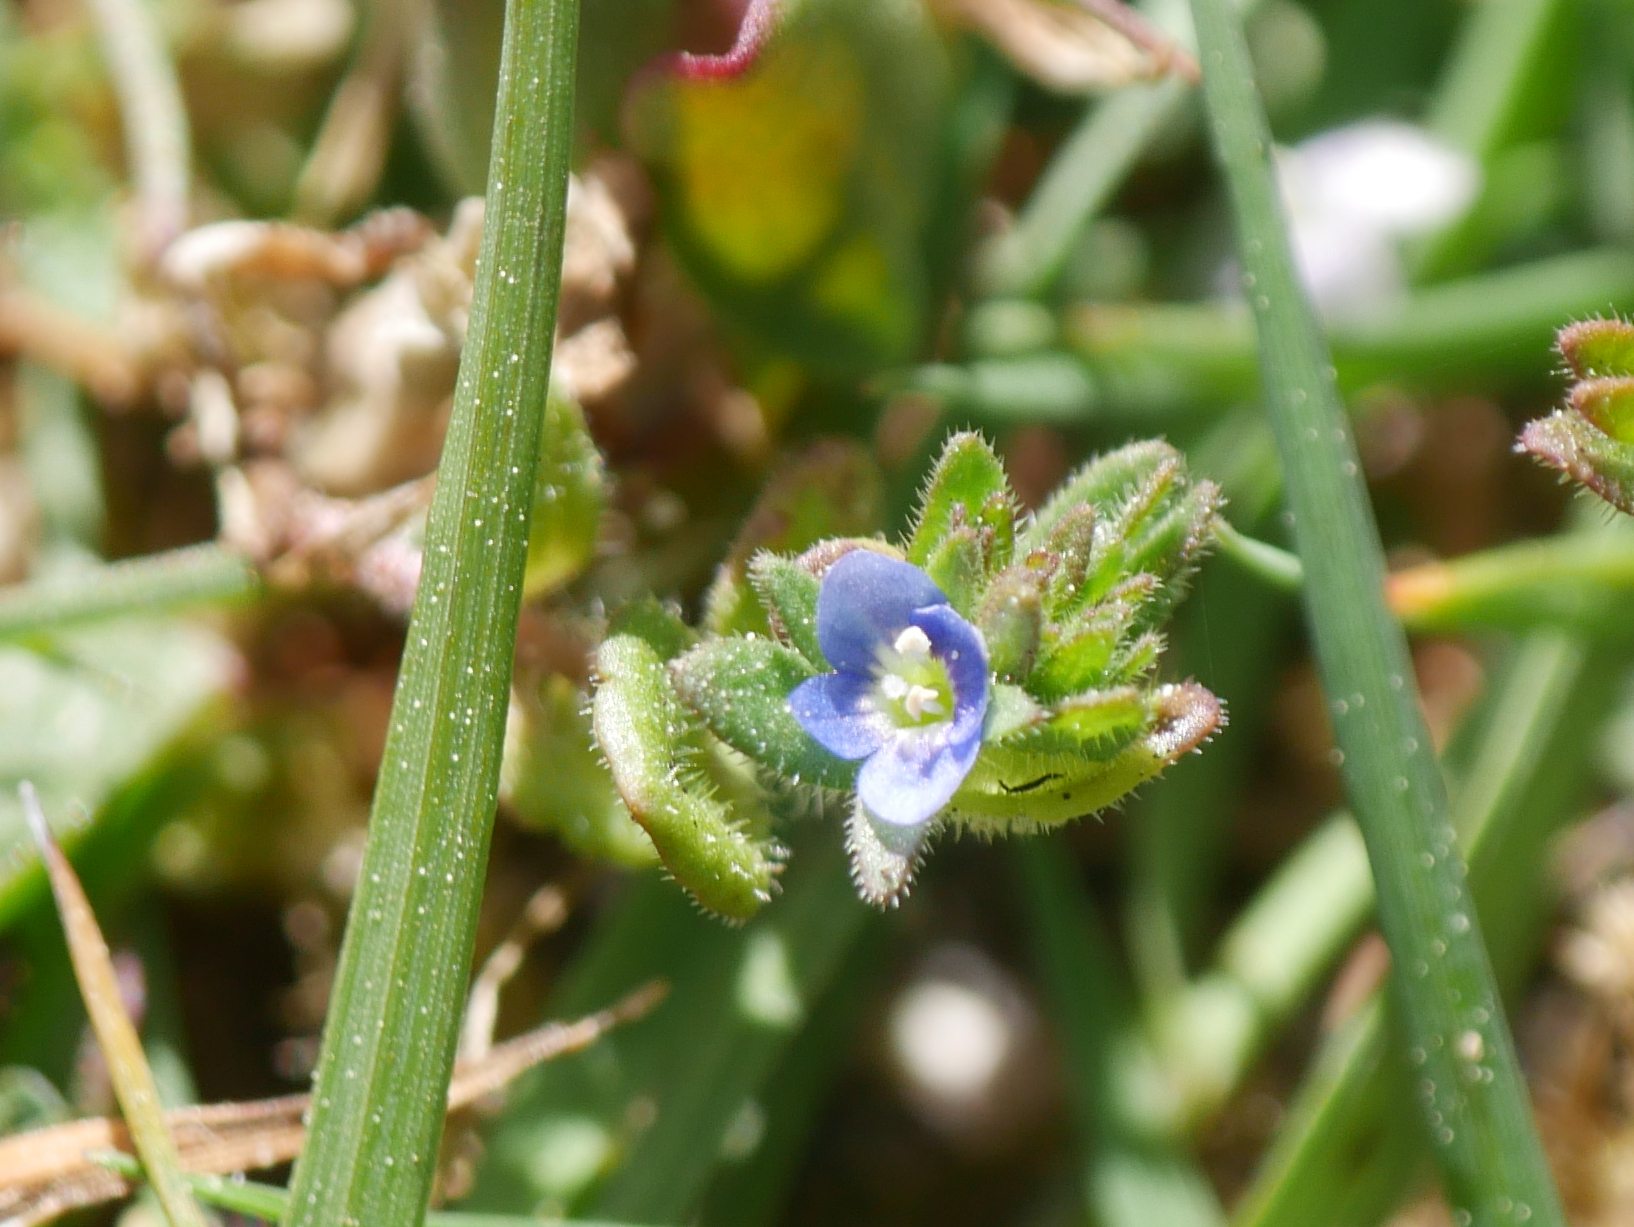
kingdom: Plantae
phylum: Tracheophyta
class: Magnoliopsida
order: Lamiales
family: Plantaginaceae
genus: Veronica
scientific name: Veronica arvensis
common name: Corn speedwell
